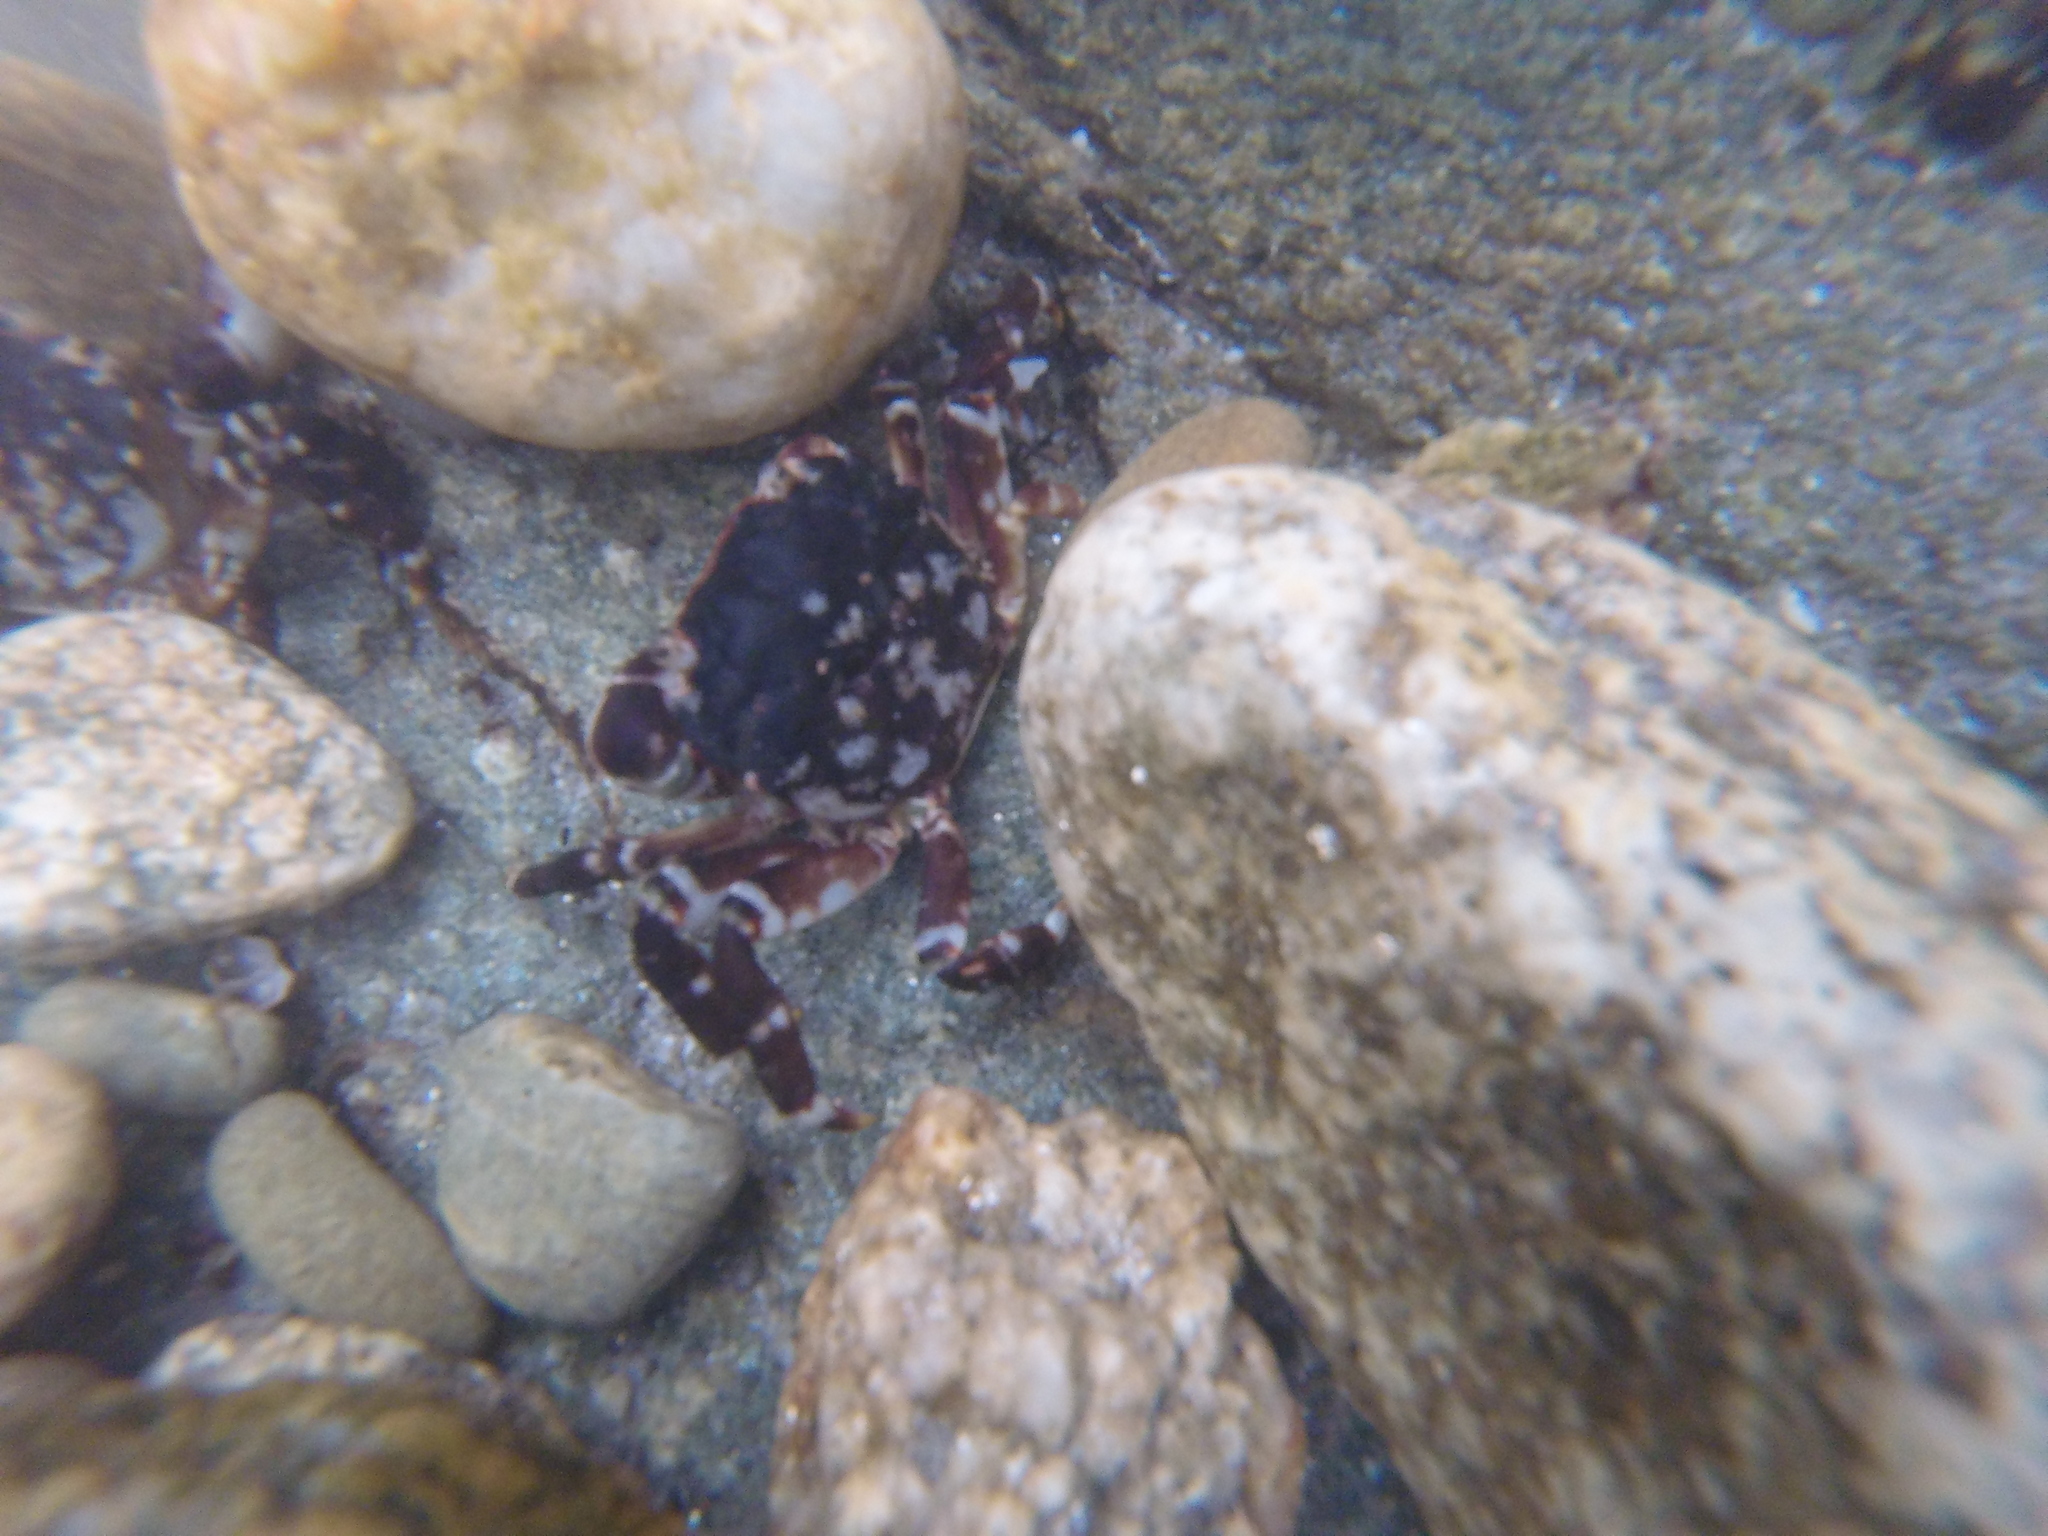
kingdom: Animalia
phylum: Arthropoda
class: Malacostraca
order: Decapoda
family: Varunidae
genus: Hemigrapsus
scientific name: Hemigrapsus sexdentatus
